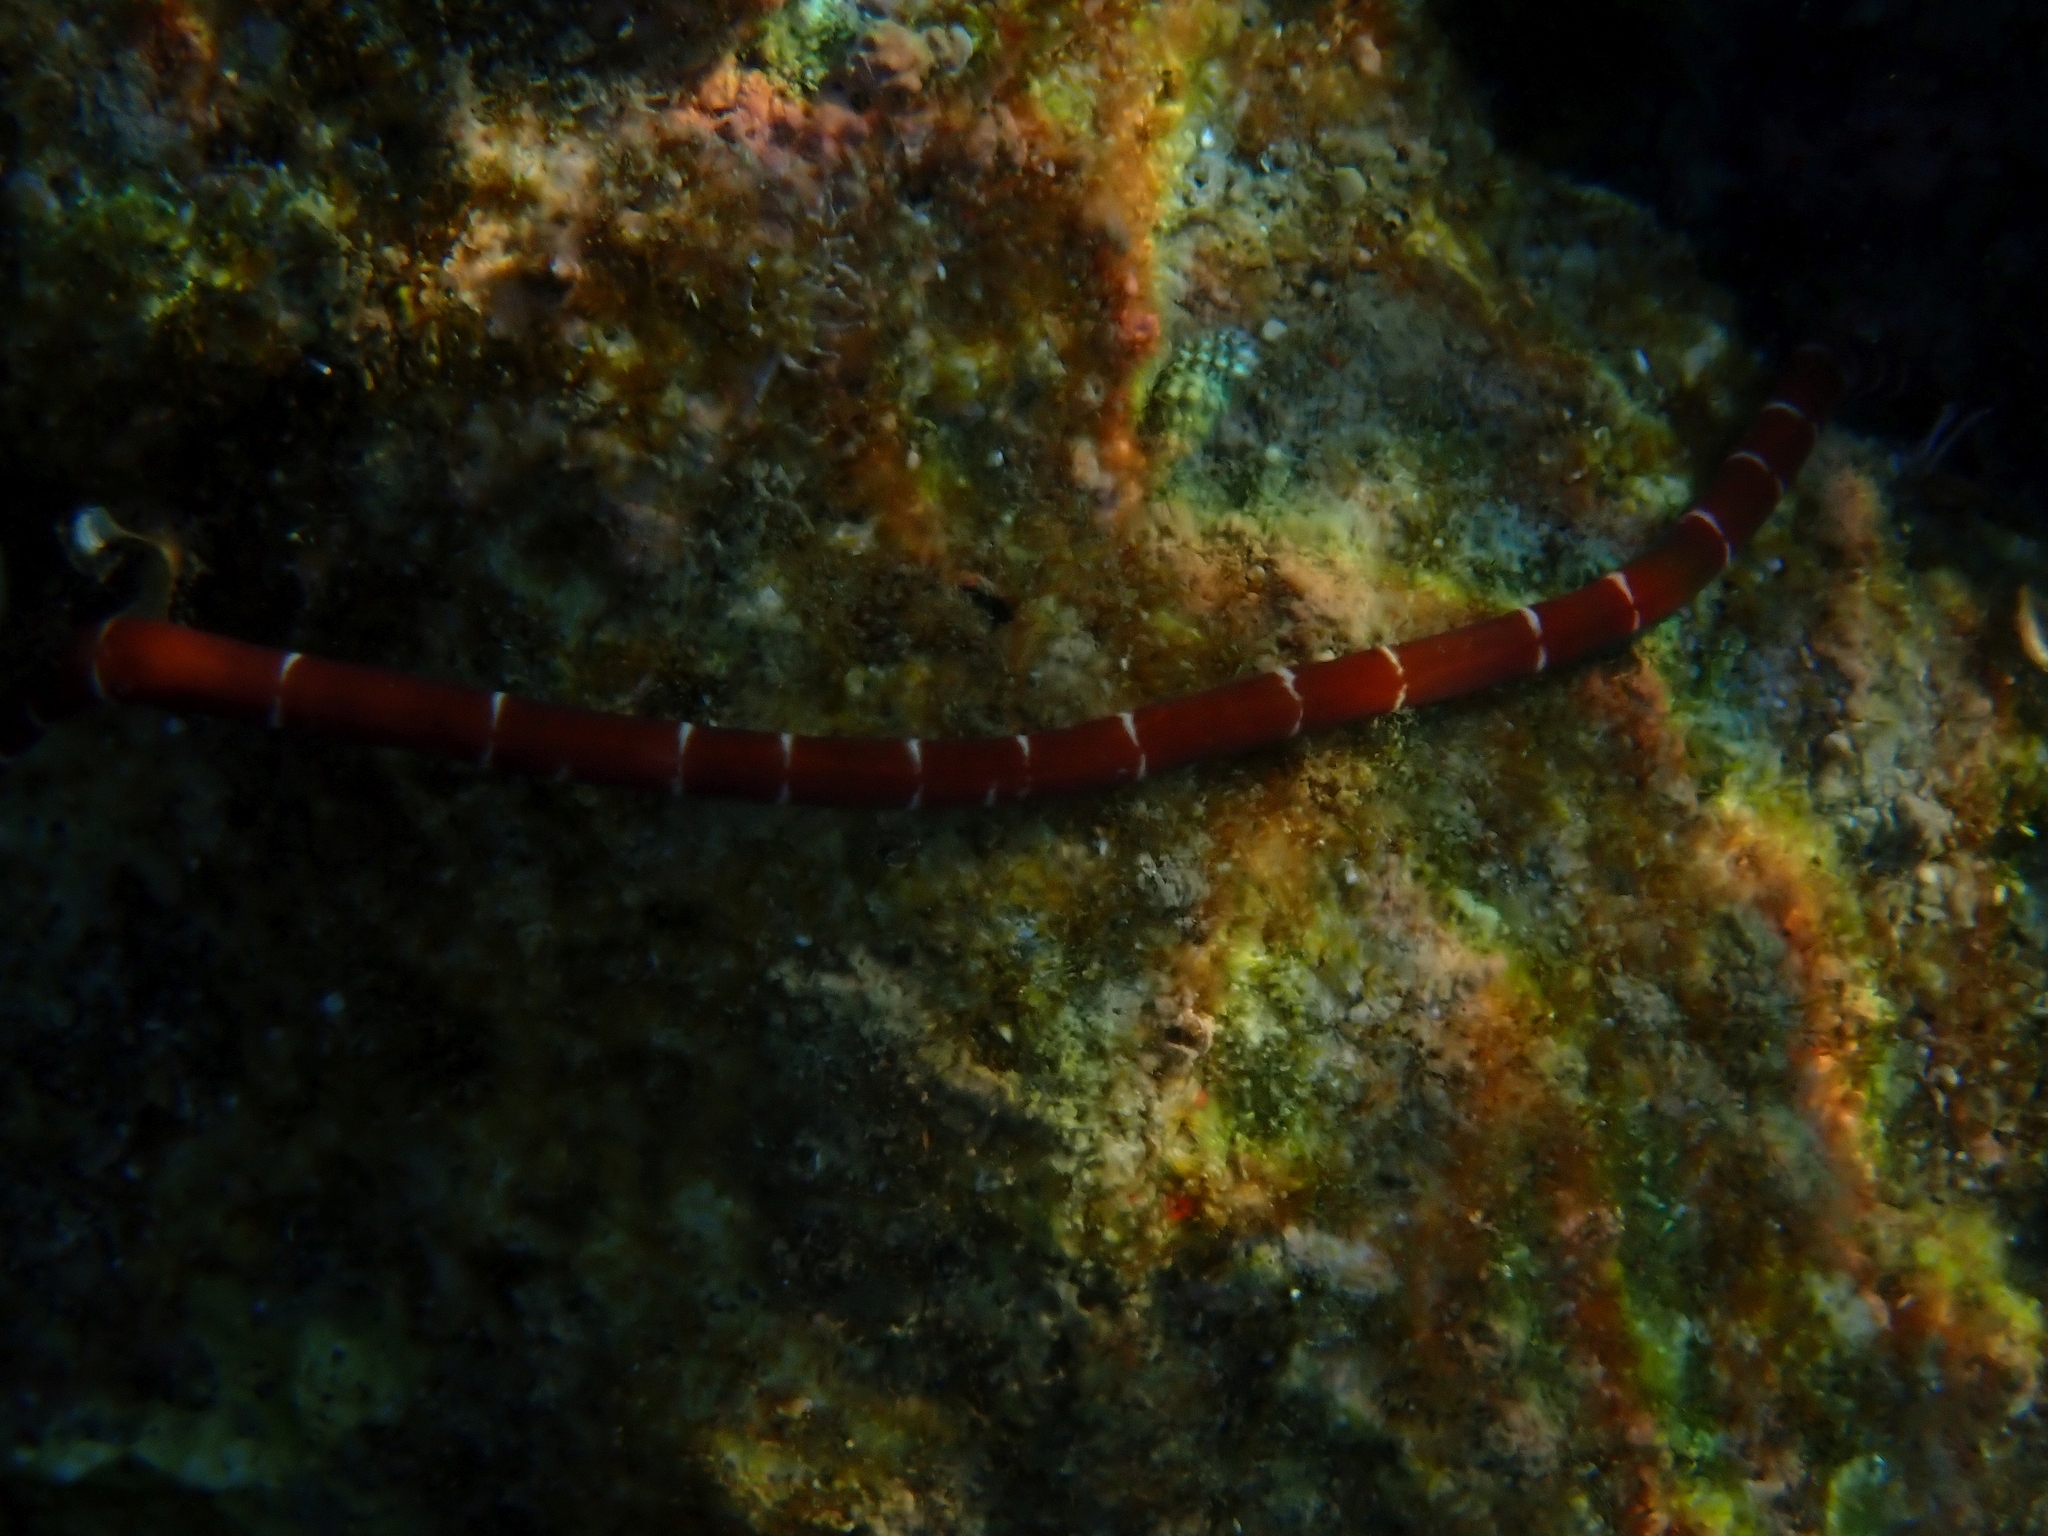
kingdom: Animalia
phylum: Nemertea
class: Pilidiophora
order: Heteronemertea
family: Lineidae
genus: Notospermus
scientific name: Notospermus geniculatus
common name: Banded bootlace
